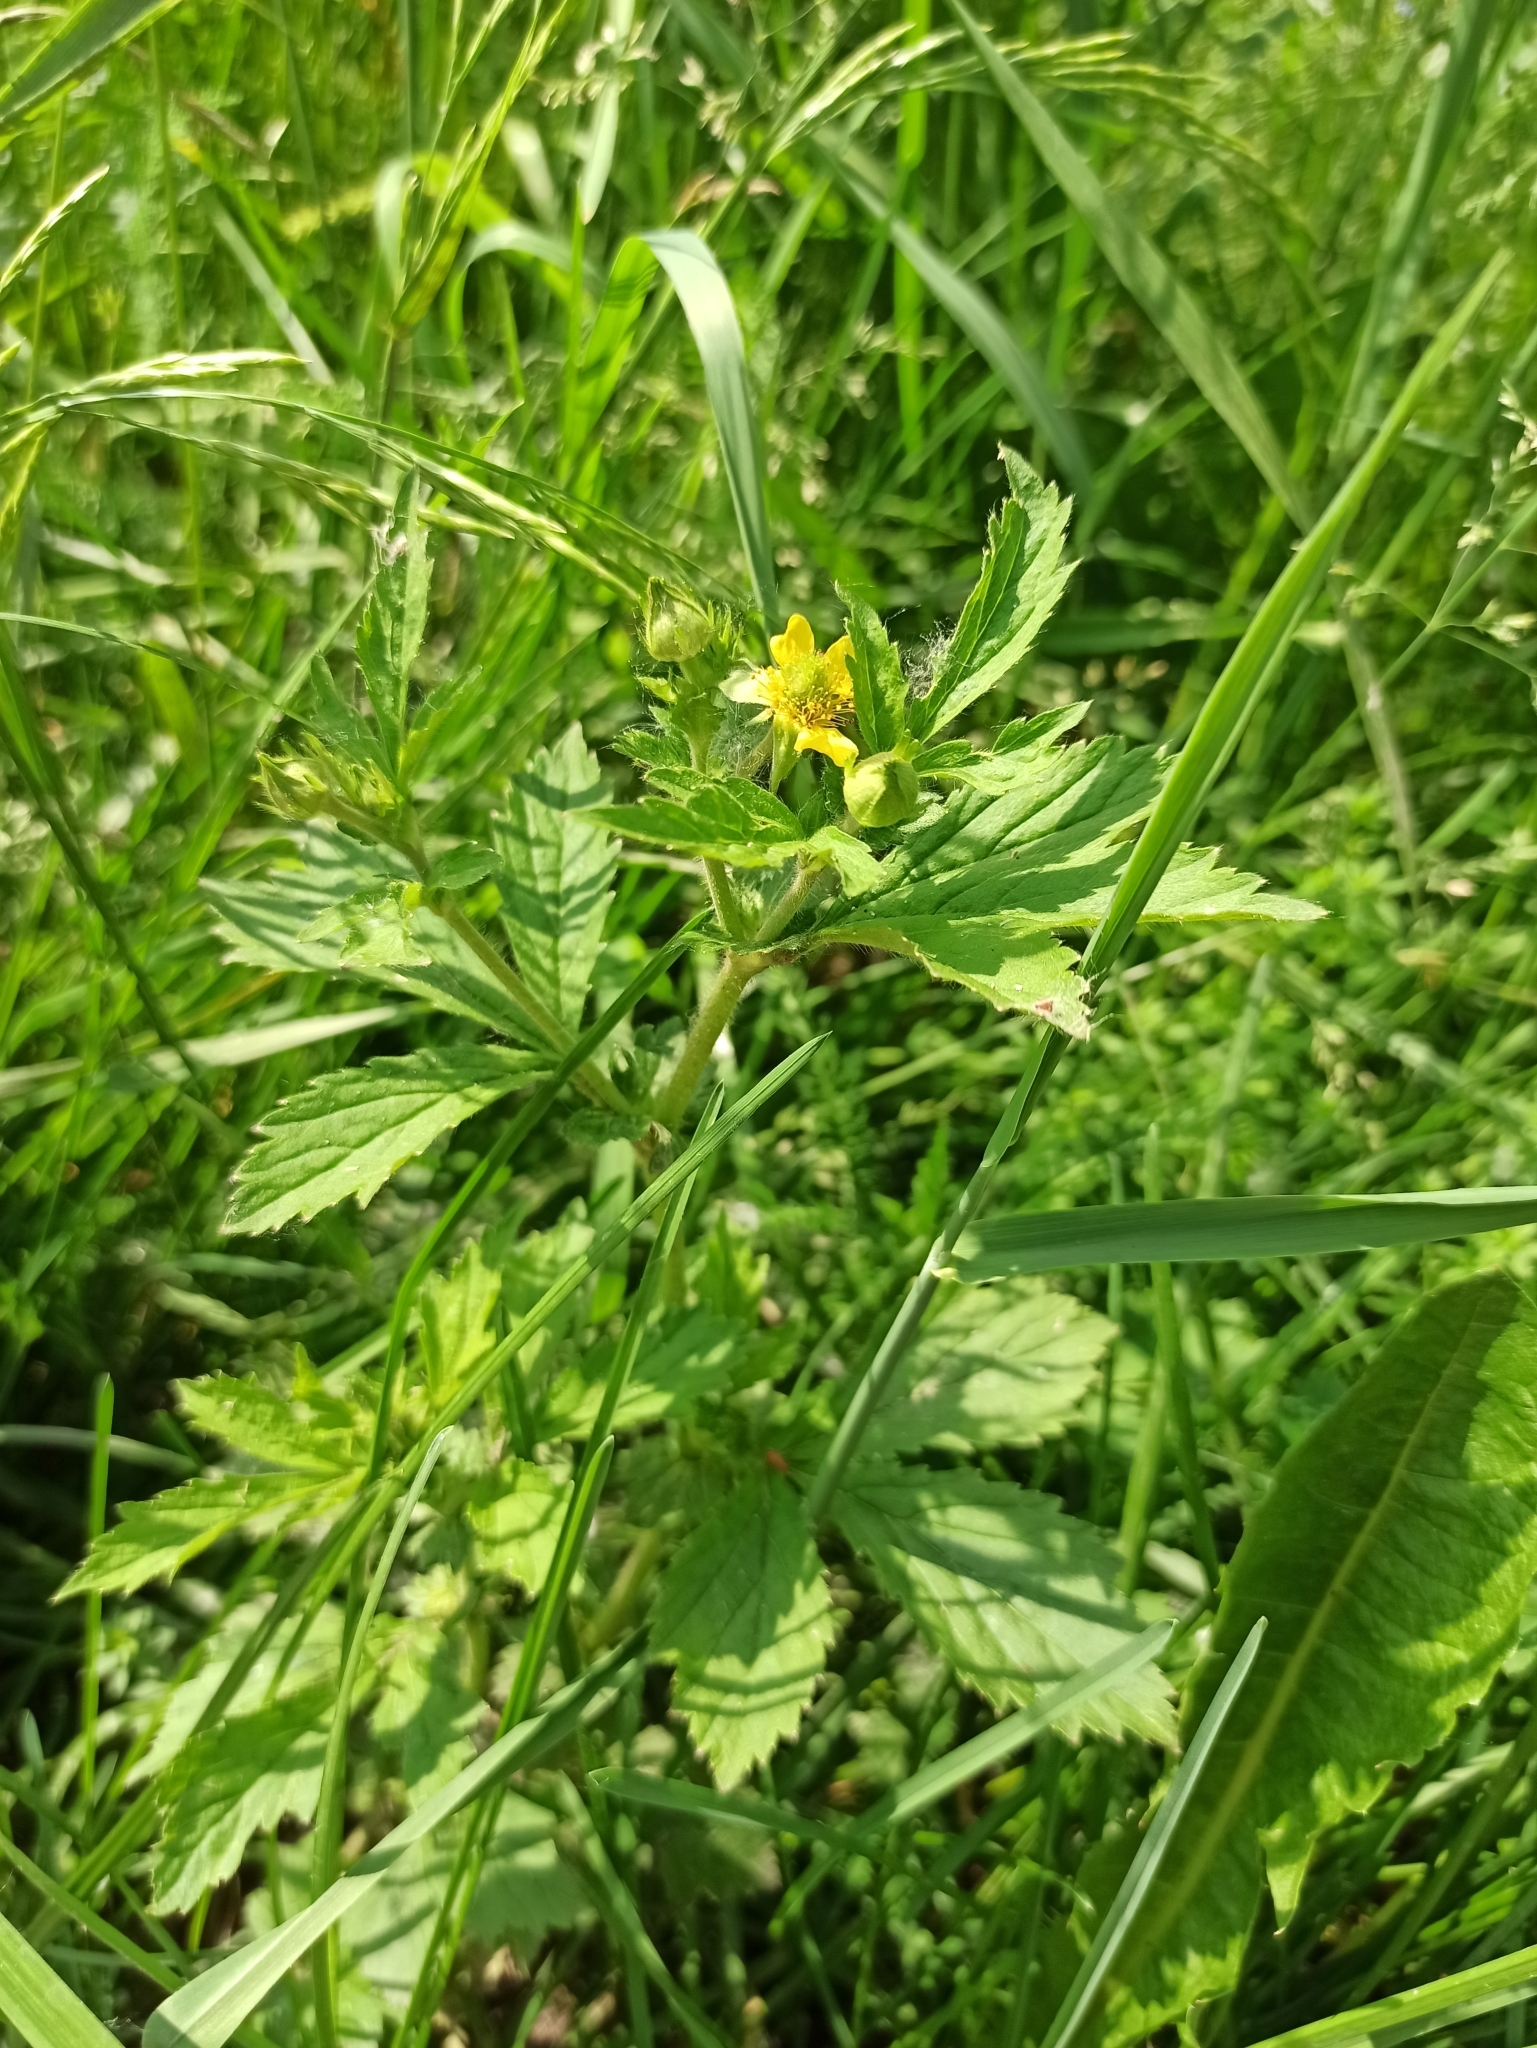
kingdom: Plantae
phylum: Tracheophyta
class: Magnoliopsida
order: Rosales
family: Rosaceae
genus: Geum
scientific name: Geum aleppicum
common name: Yellow avens
